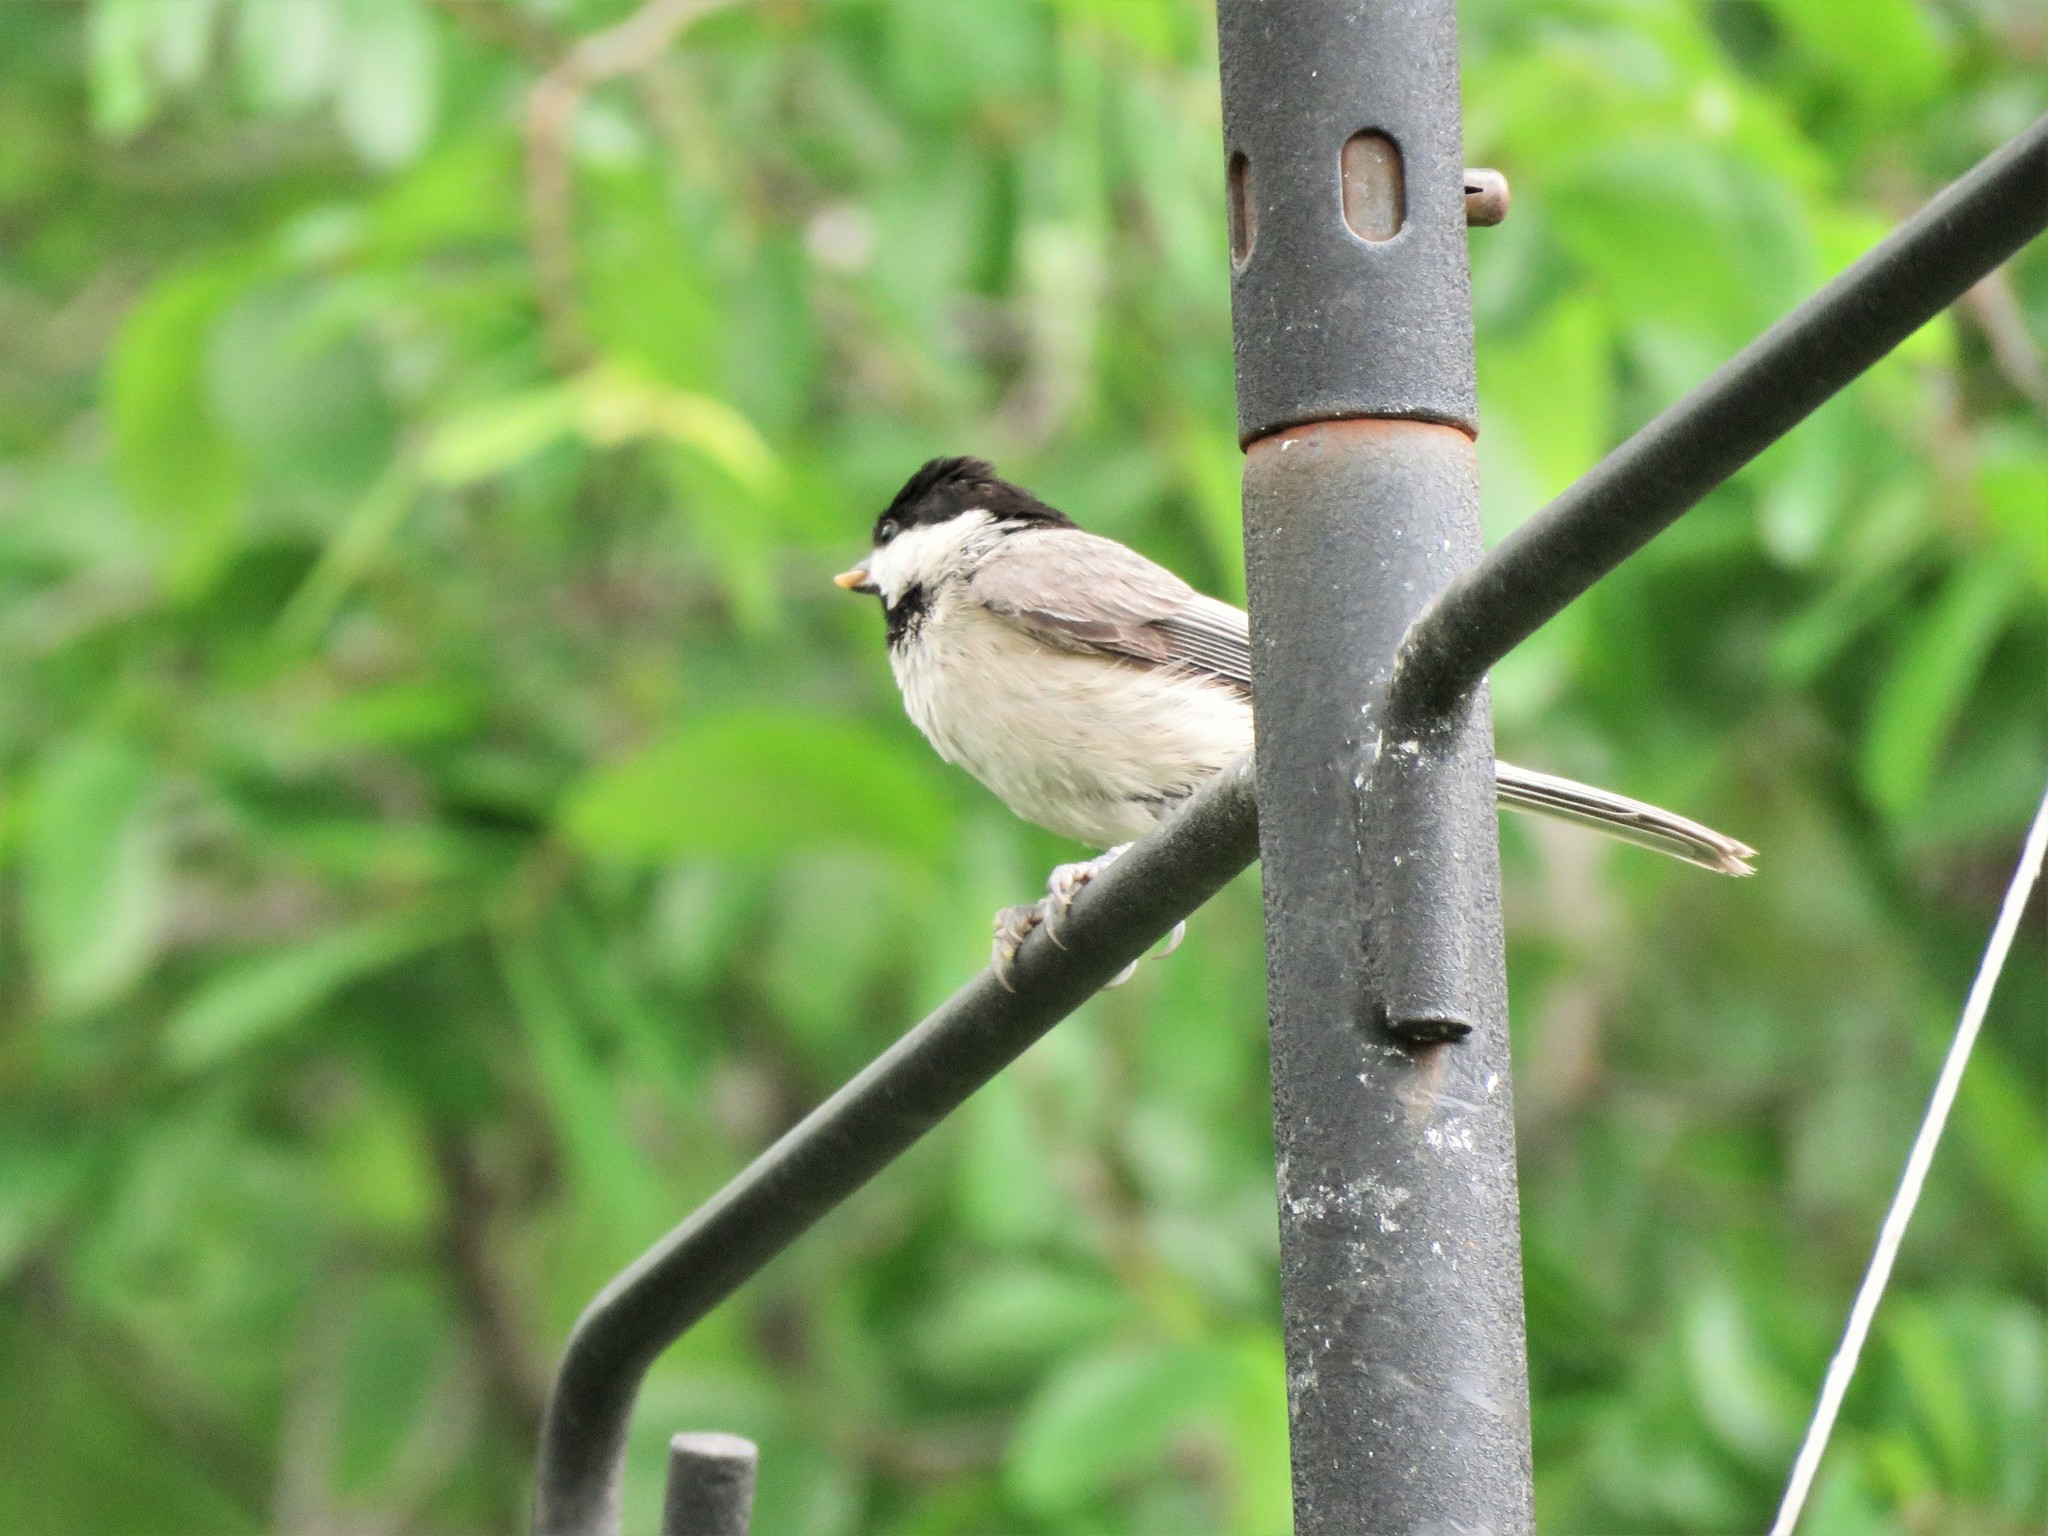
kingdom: Animalia
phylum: Chordata
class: Aves
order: Passeriformes
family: Paridae
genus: Poecile
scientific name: Poecile carolinensis
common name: Carolina chickadee
